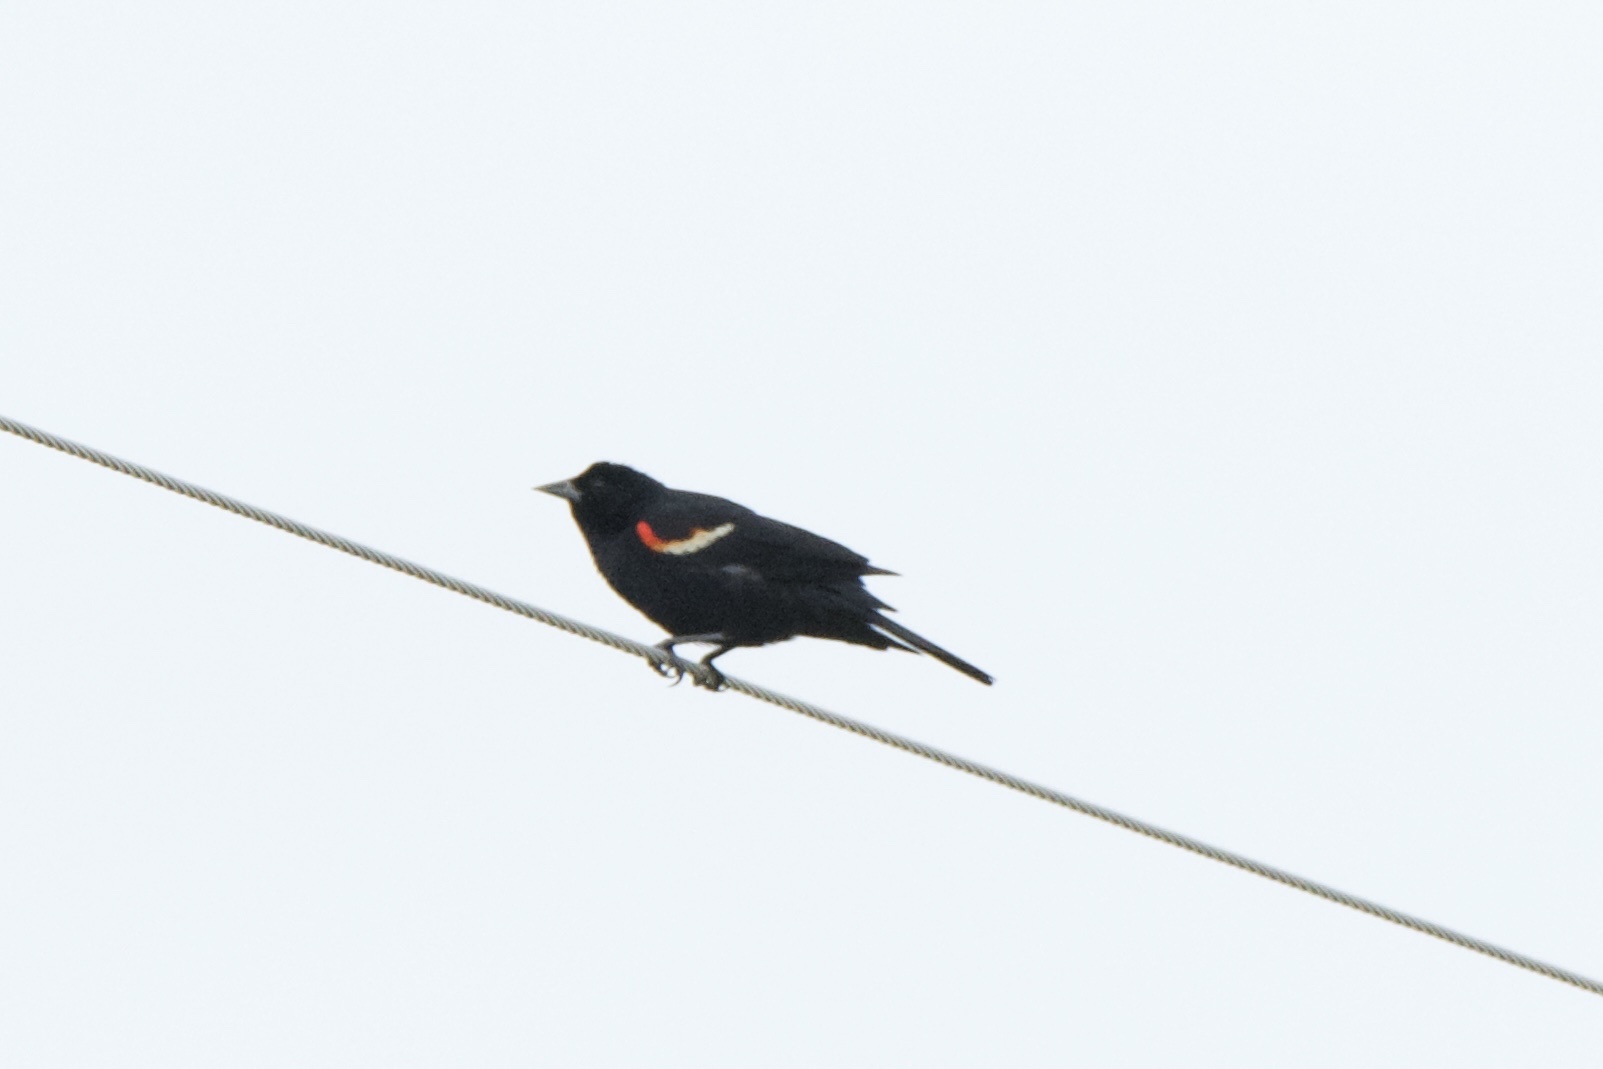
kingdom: Animalia
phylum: Chordata
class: Aves
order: Passeriformes
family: Icteridae
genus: Agelaius
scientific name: Agelaius phoeniceus
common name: Red-winged blackbird
